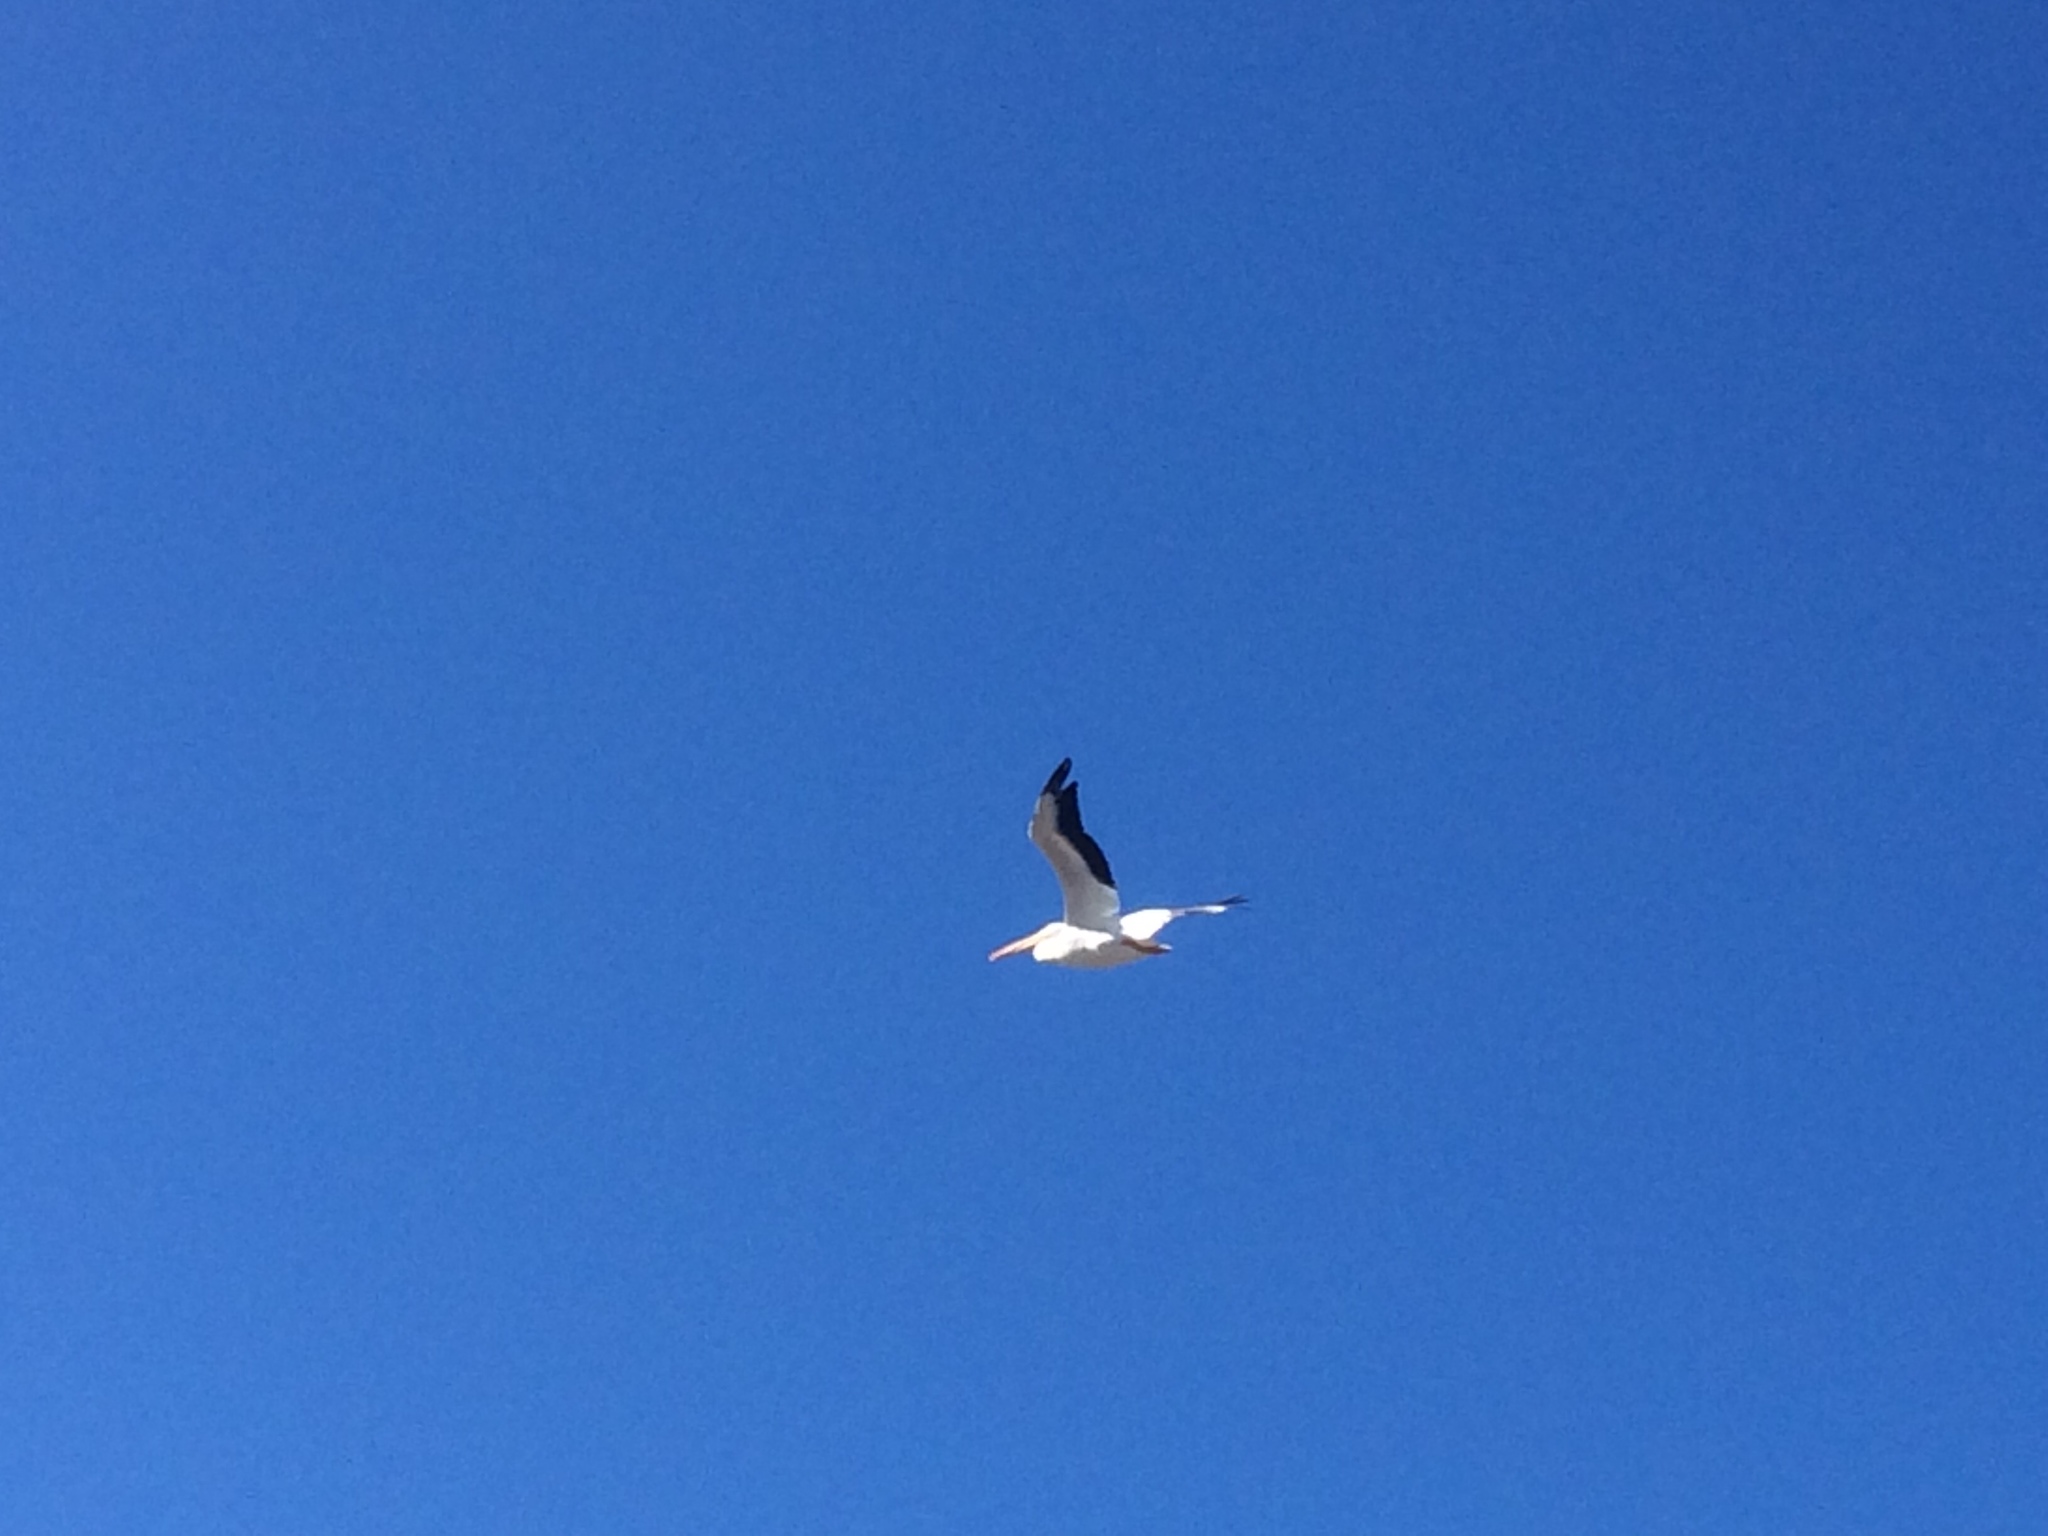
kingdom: Animalia
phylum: Chordata
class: Aves
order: Pelecaniformes
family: Pelecanidae
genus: Pelecanus
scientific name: Pelecanus erythrorhynchos
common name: American white pelican
